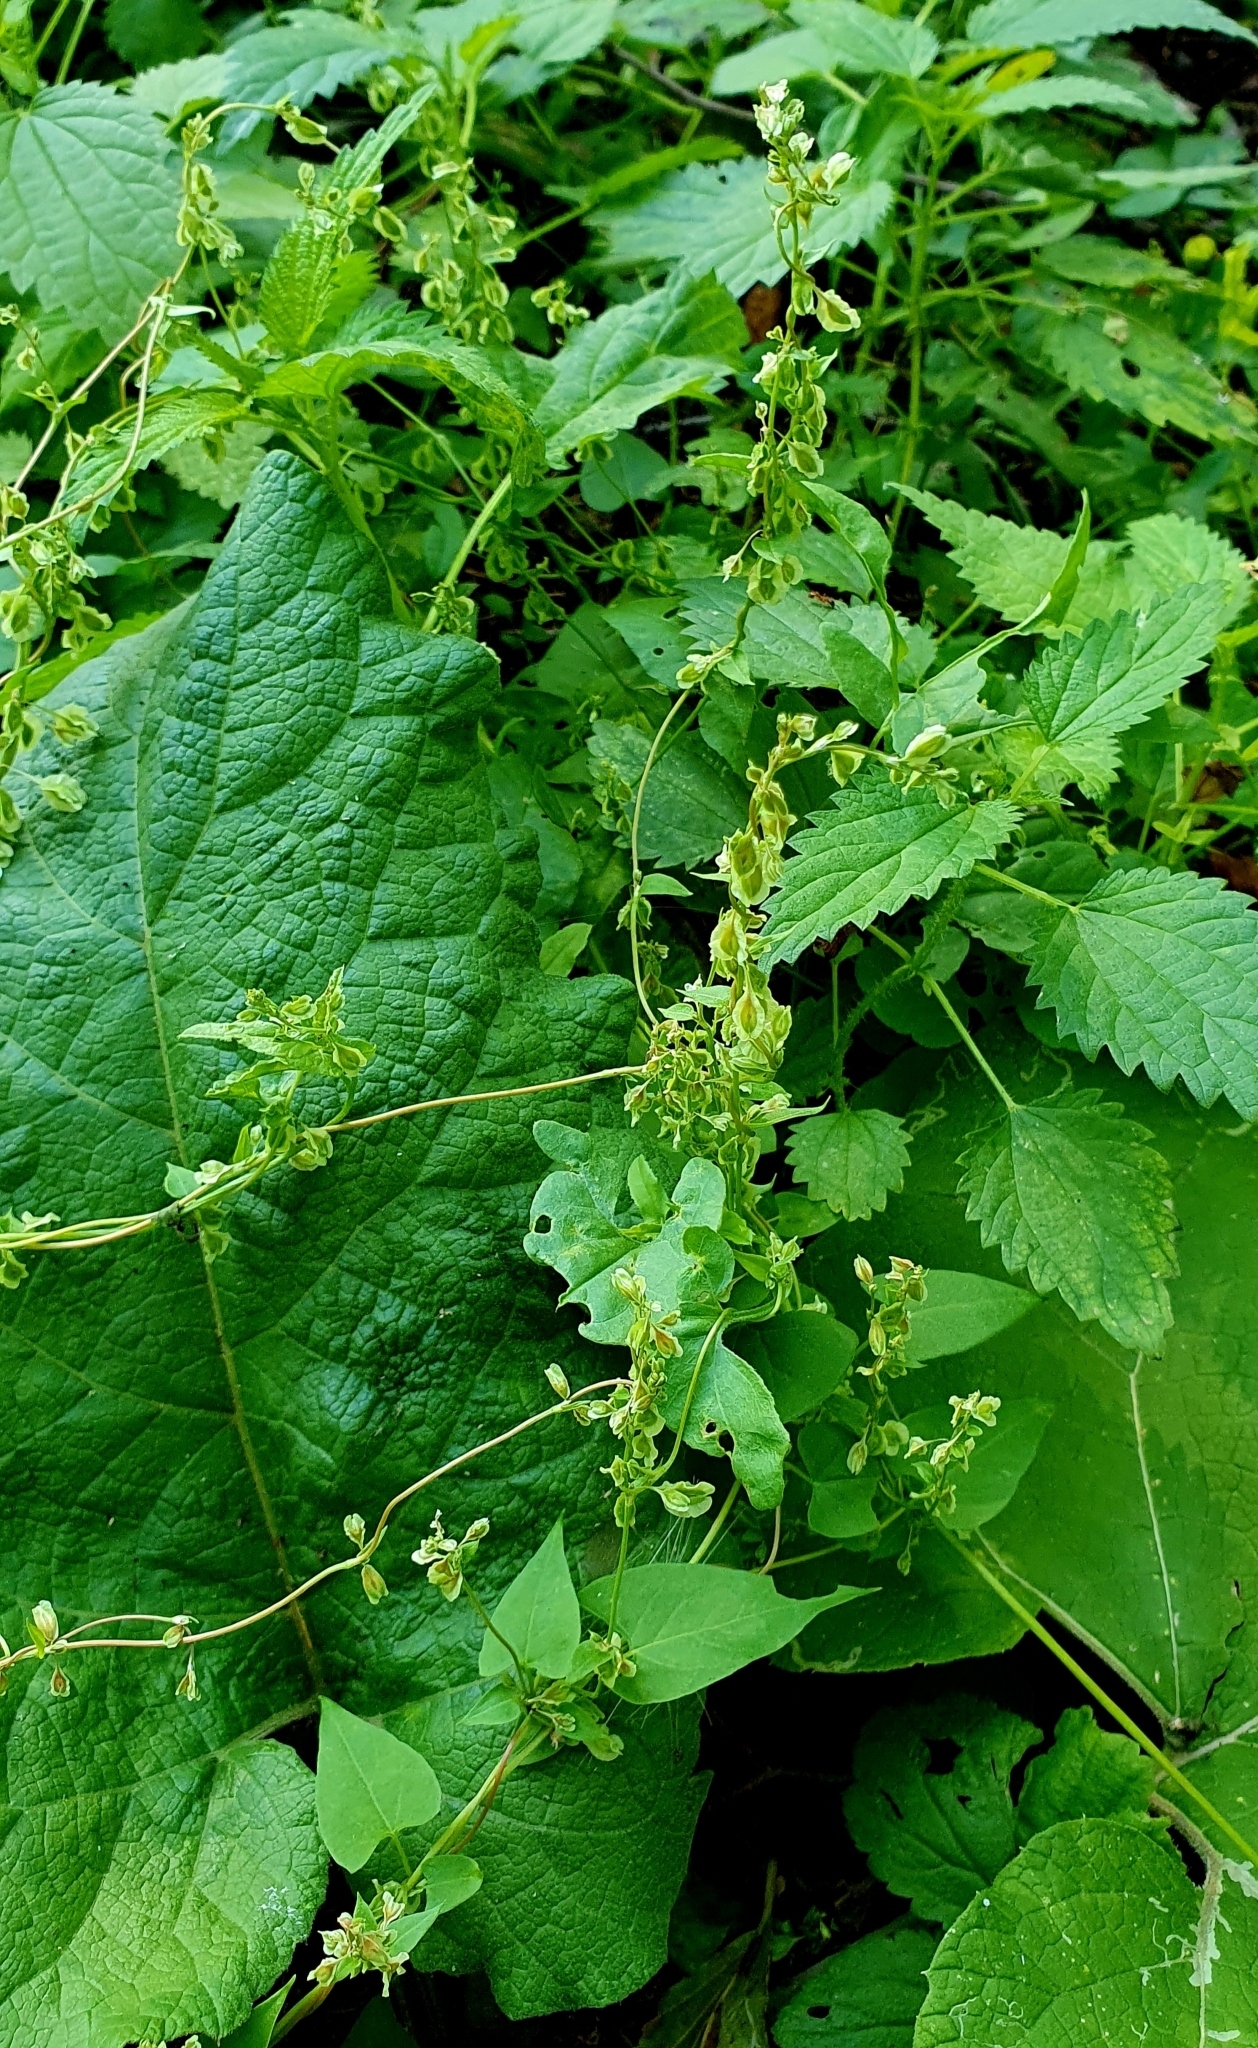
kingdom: Plantae
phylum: Tracheophyta
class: Magnoliopsida
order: Caryophyllales
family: Polygonaceae
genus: Fallopia
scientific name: Fallopia dumetorum
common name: Copse-bindweed
